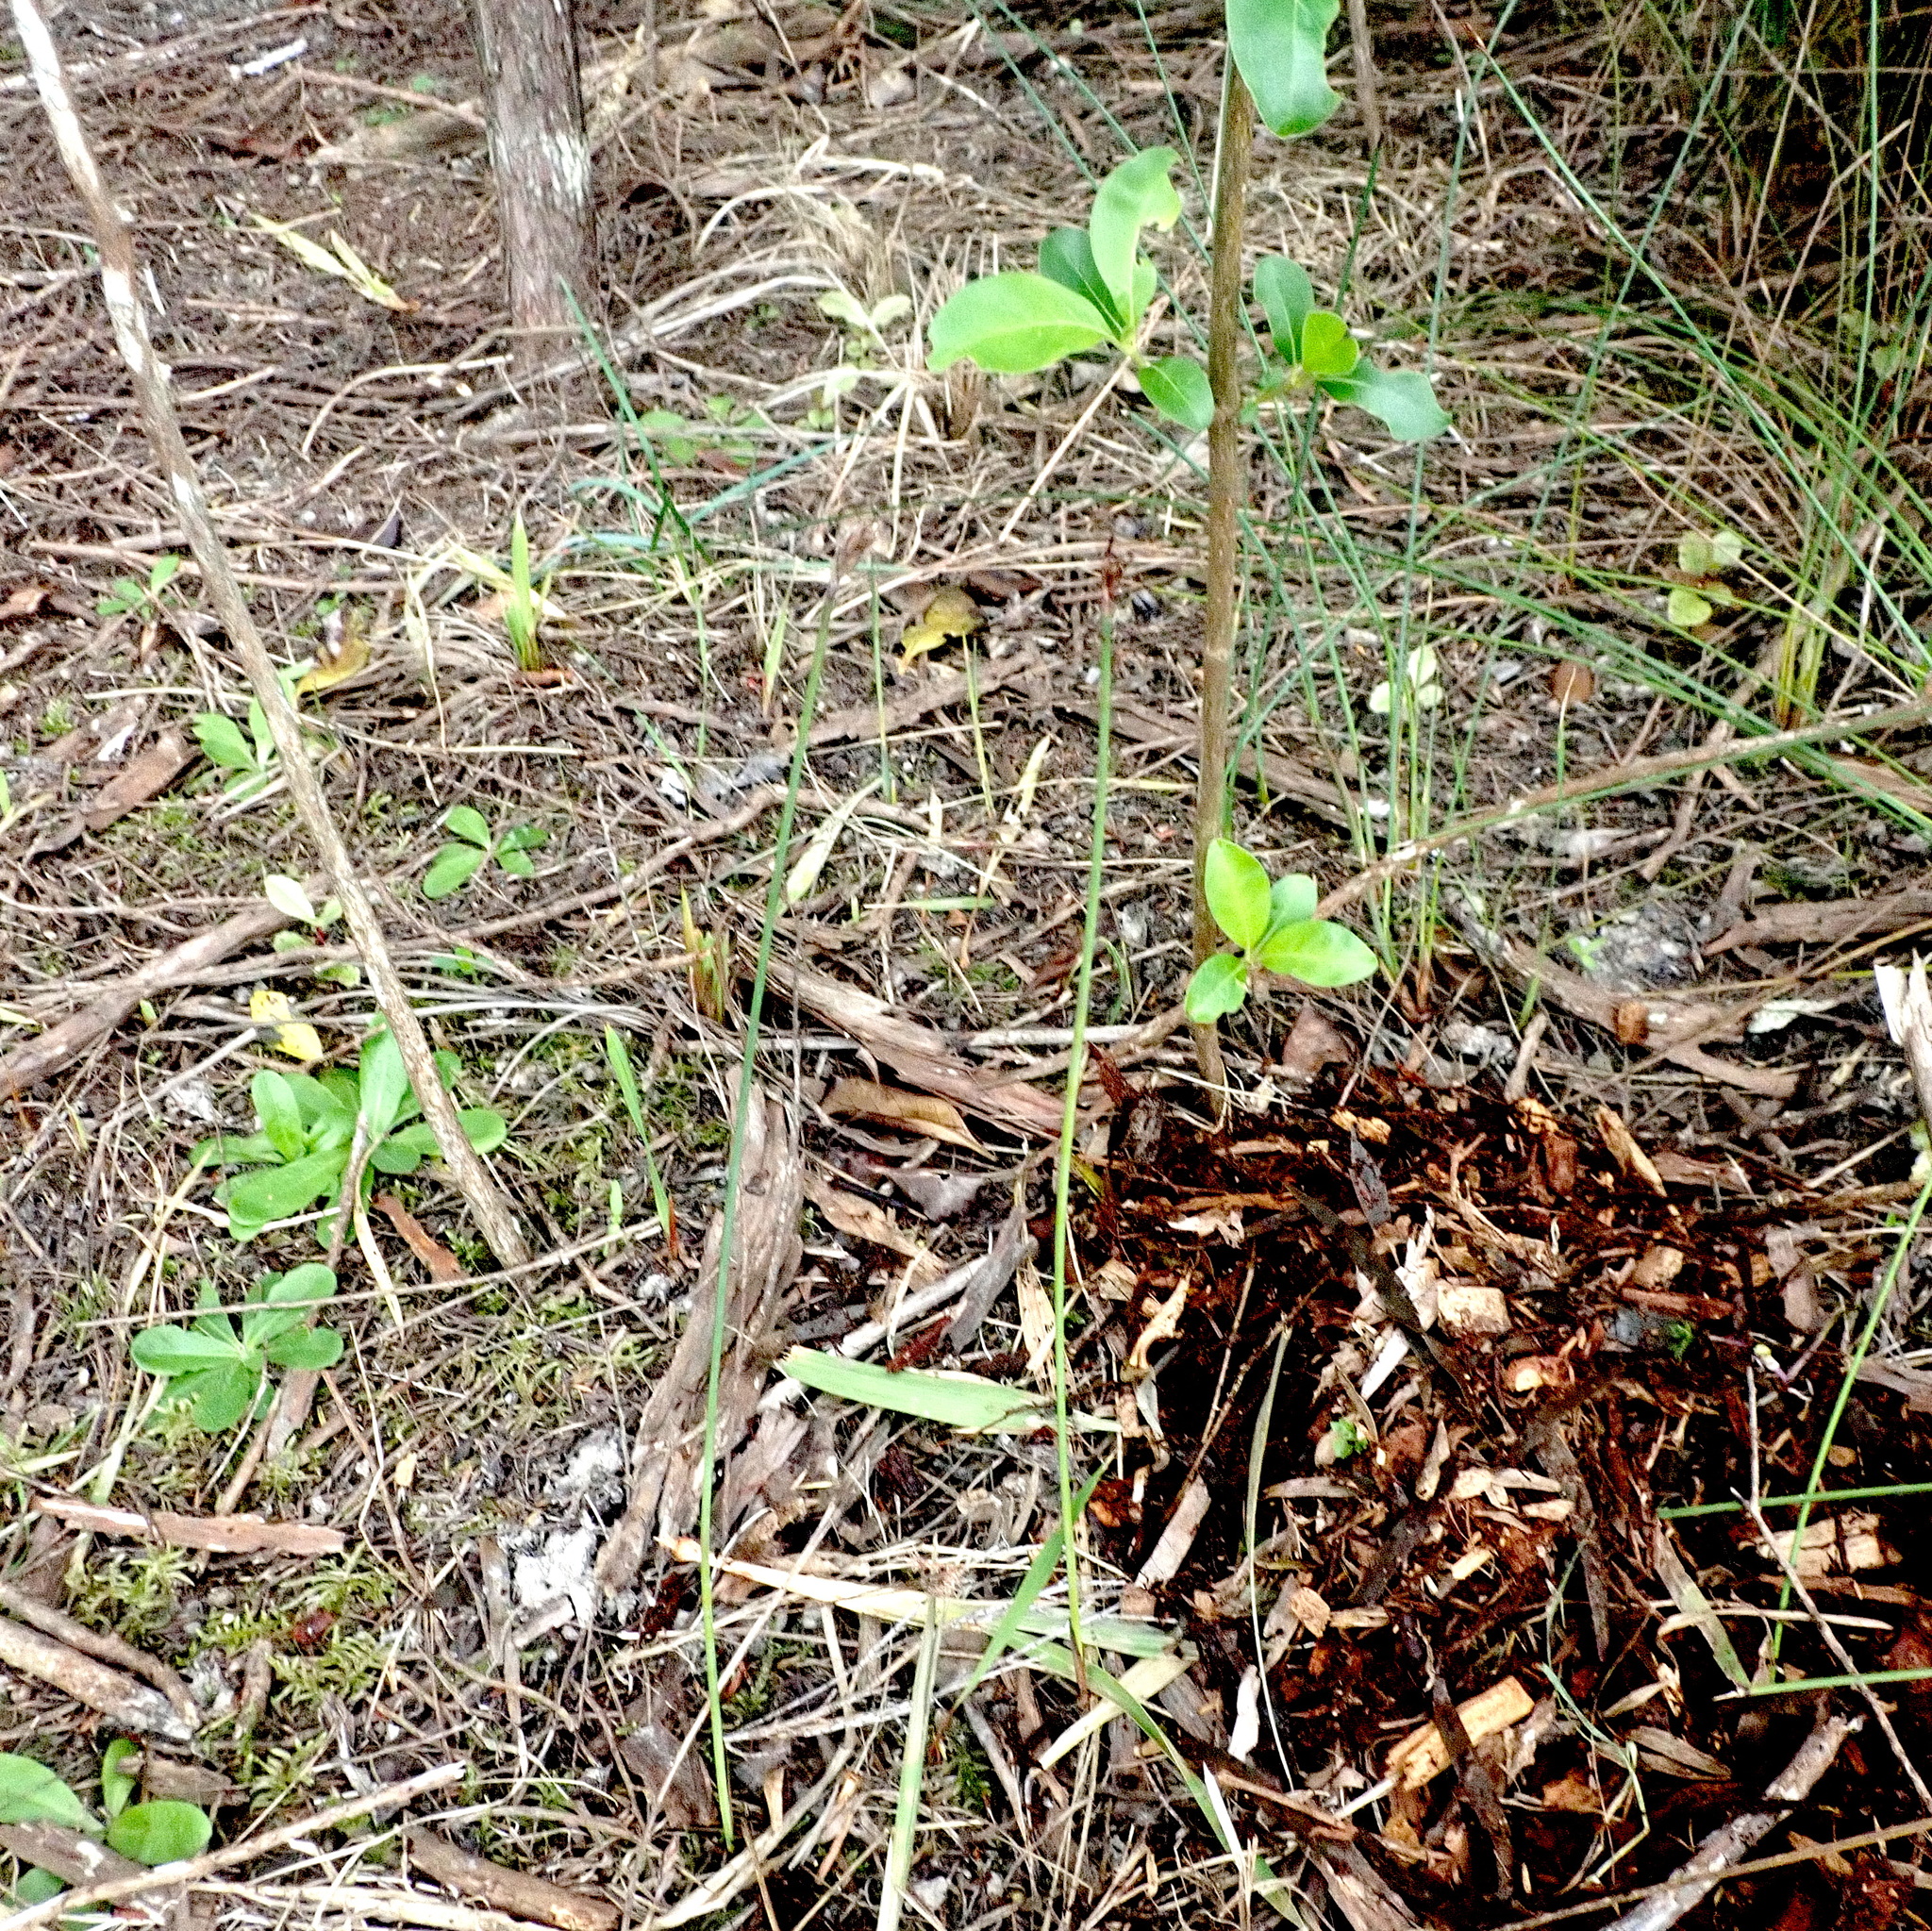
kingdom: Plantae
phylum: Tracheophyta
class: Liliopsida
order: Poales
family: Cyperaceae
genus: Lepidosperma
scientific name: Lepidosperma australe
